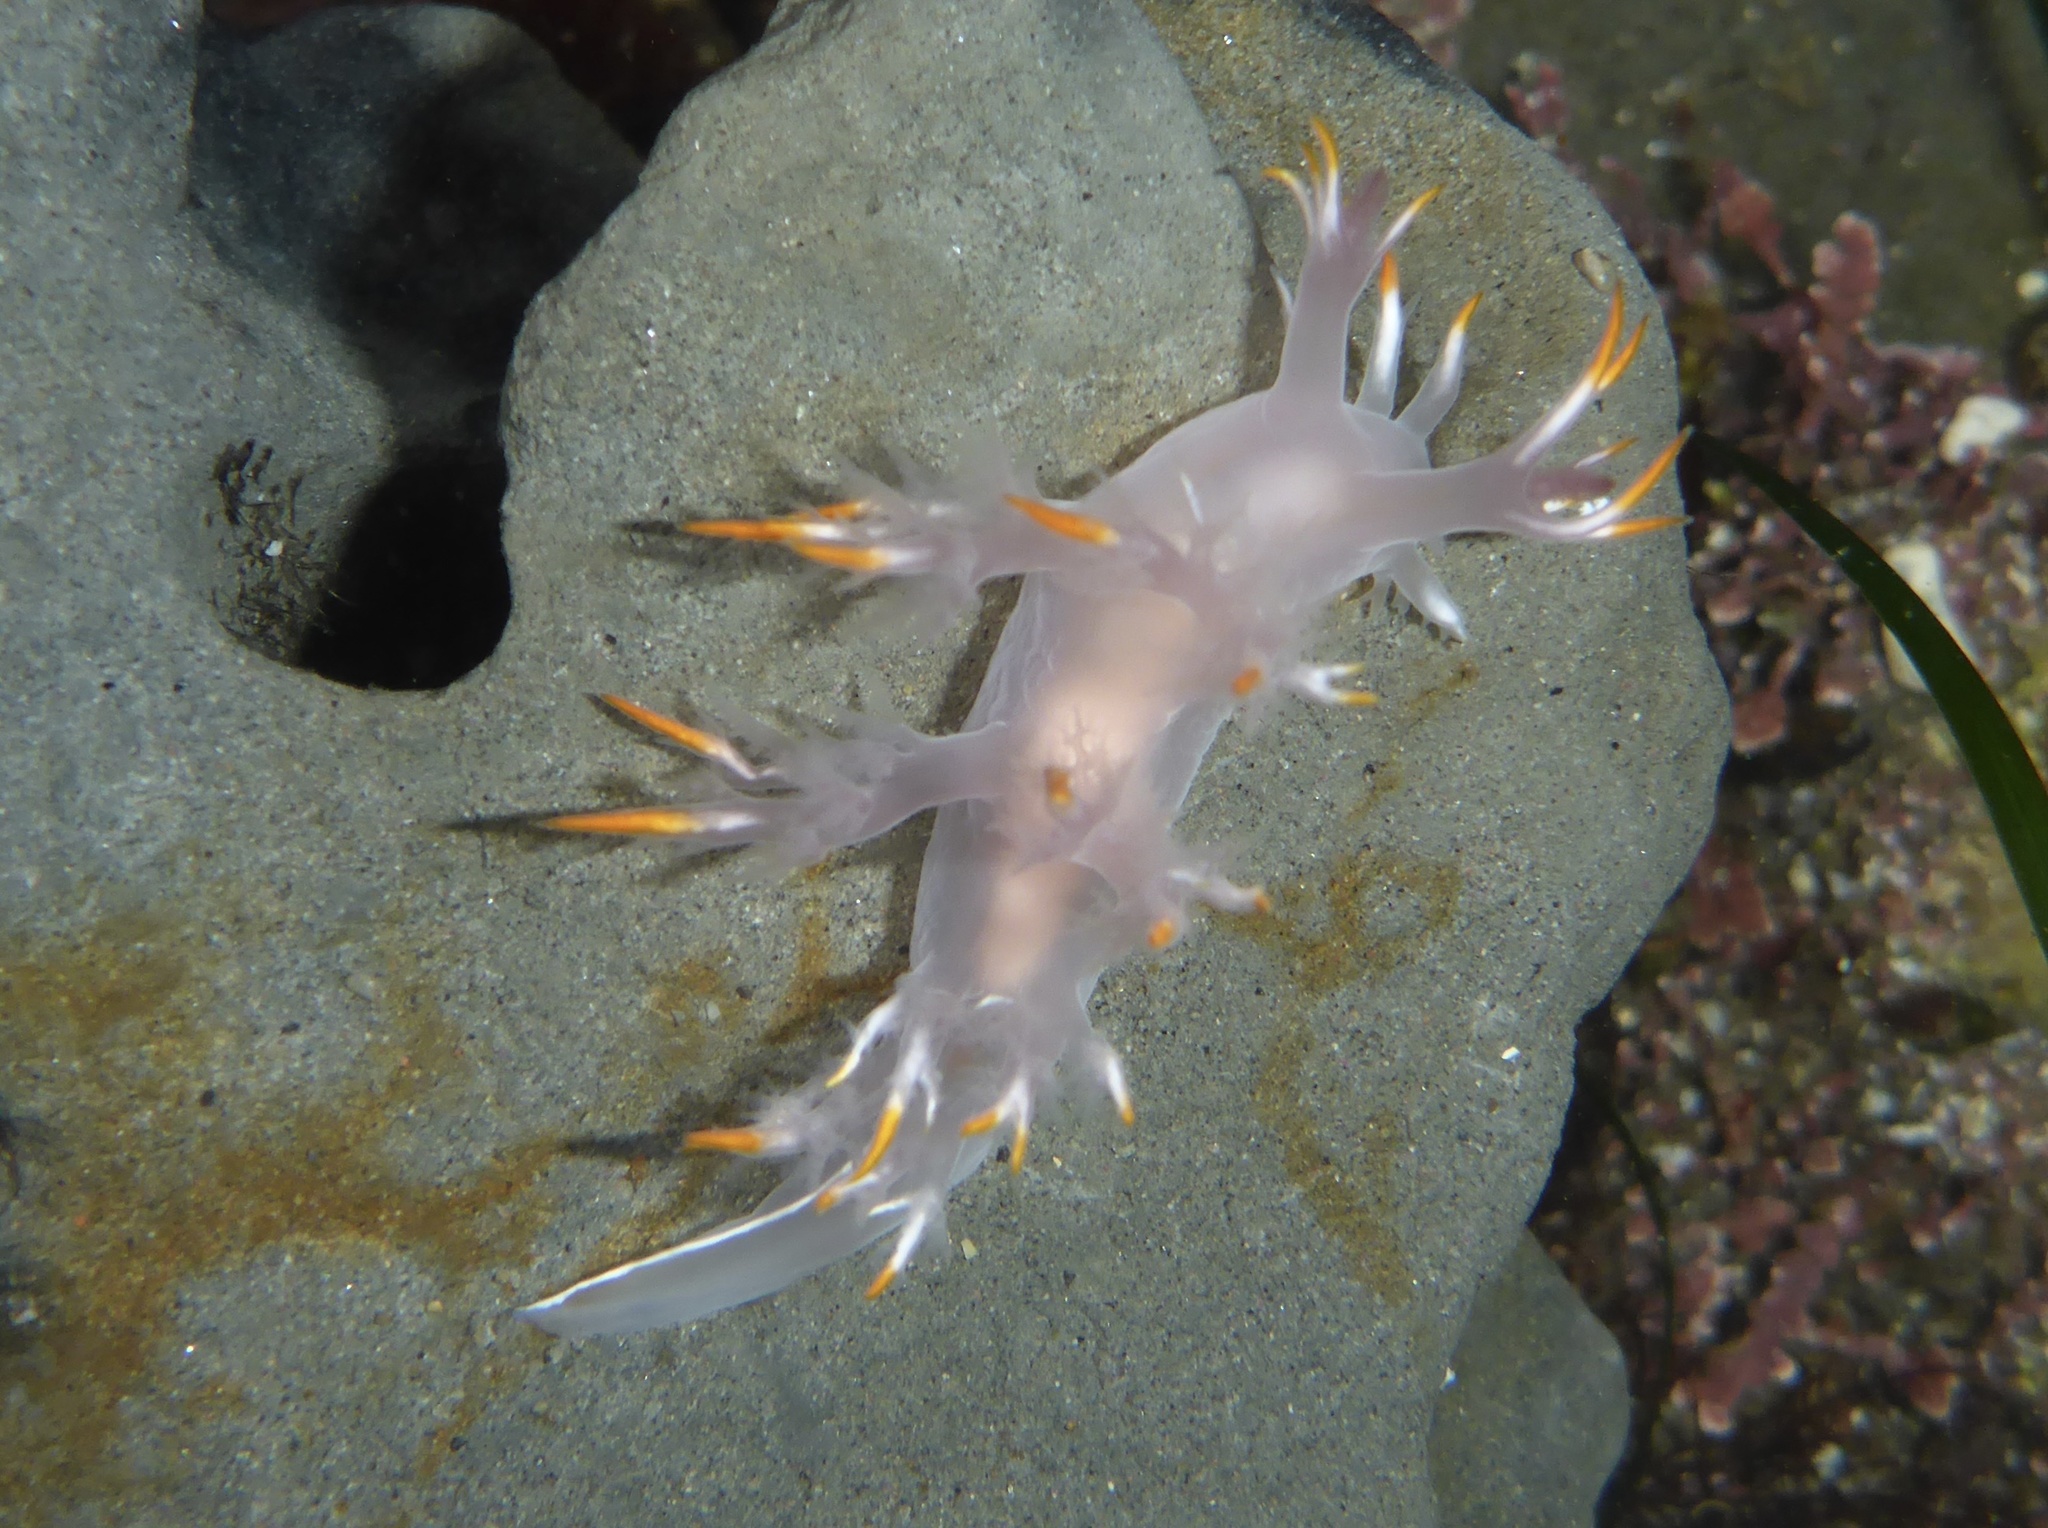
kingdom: Animalia
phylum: Mollusca
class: Gastropoda
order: Nudibranchia
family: Dendronotidae
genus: Dendronotus
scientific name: Dendronotus albus
